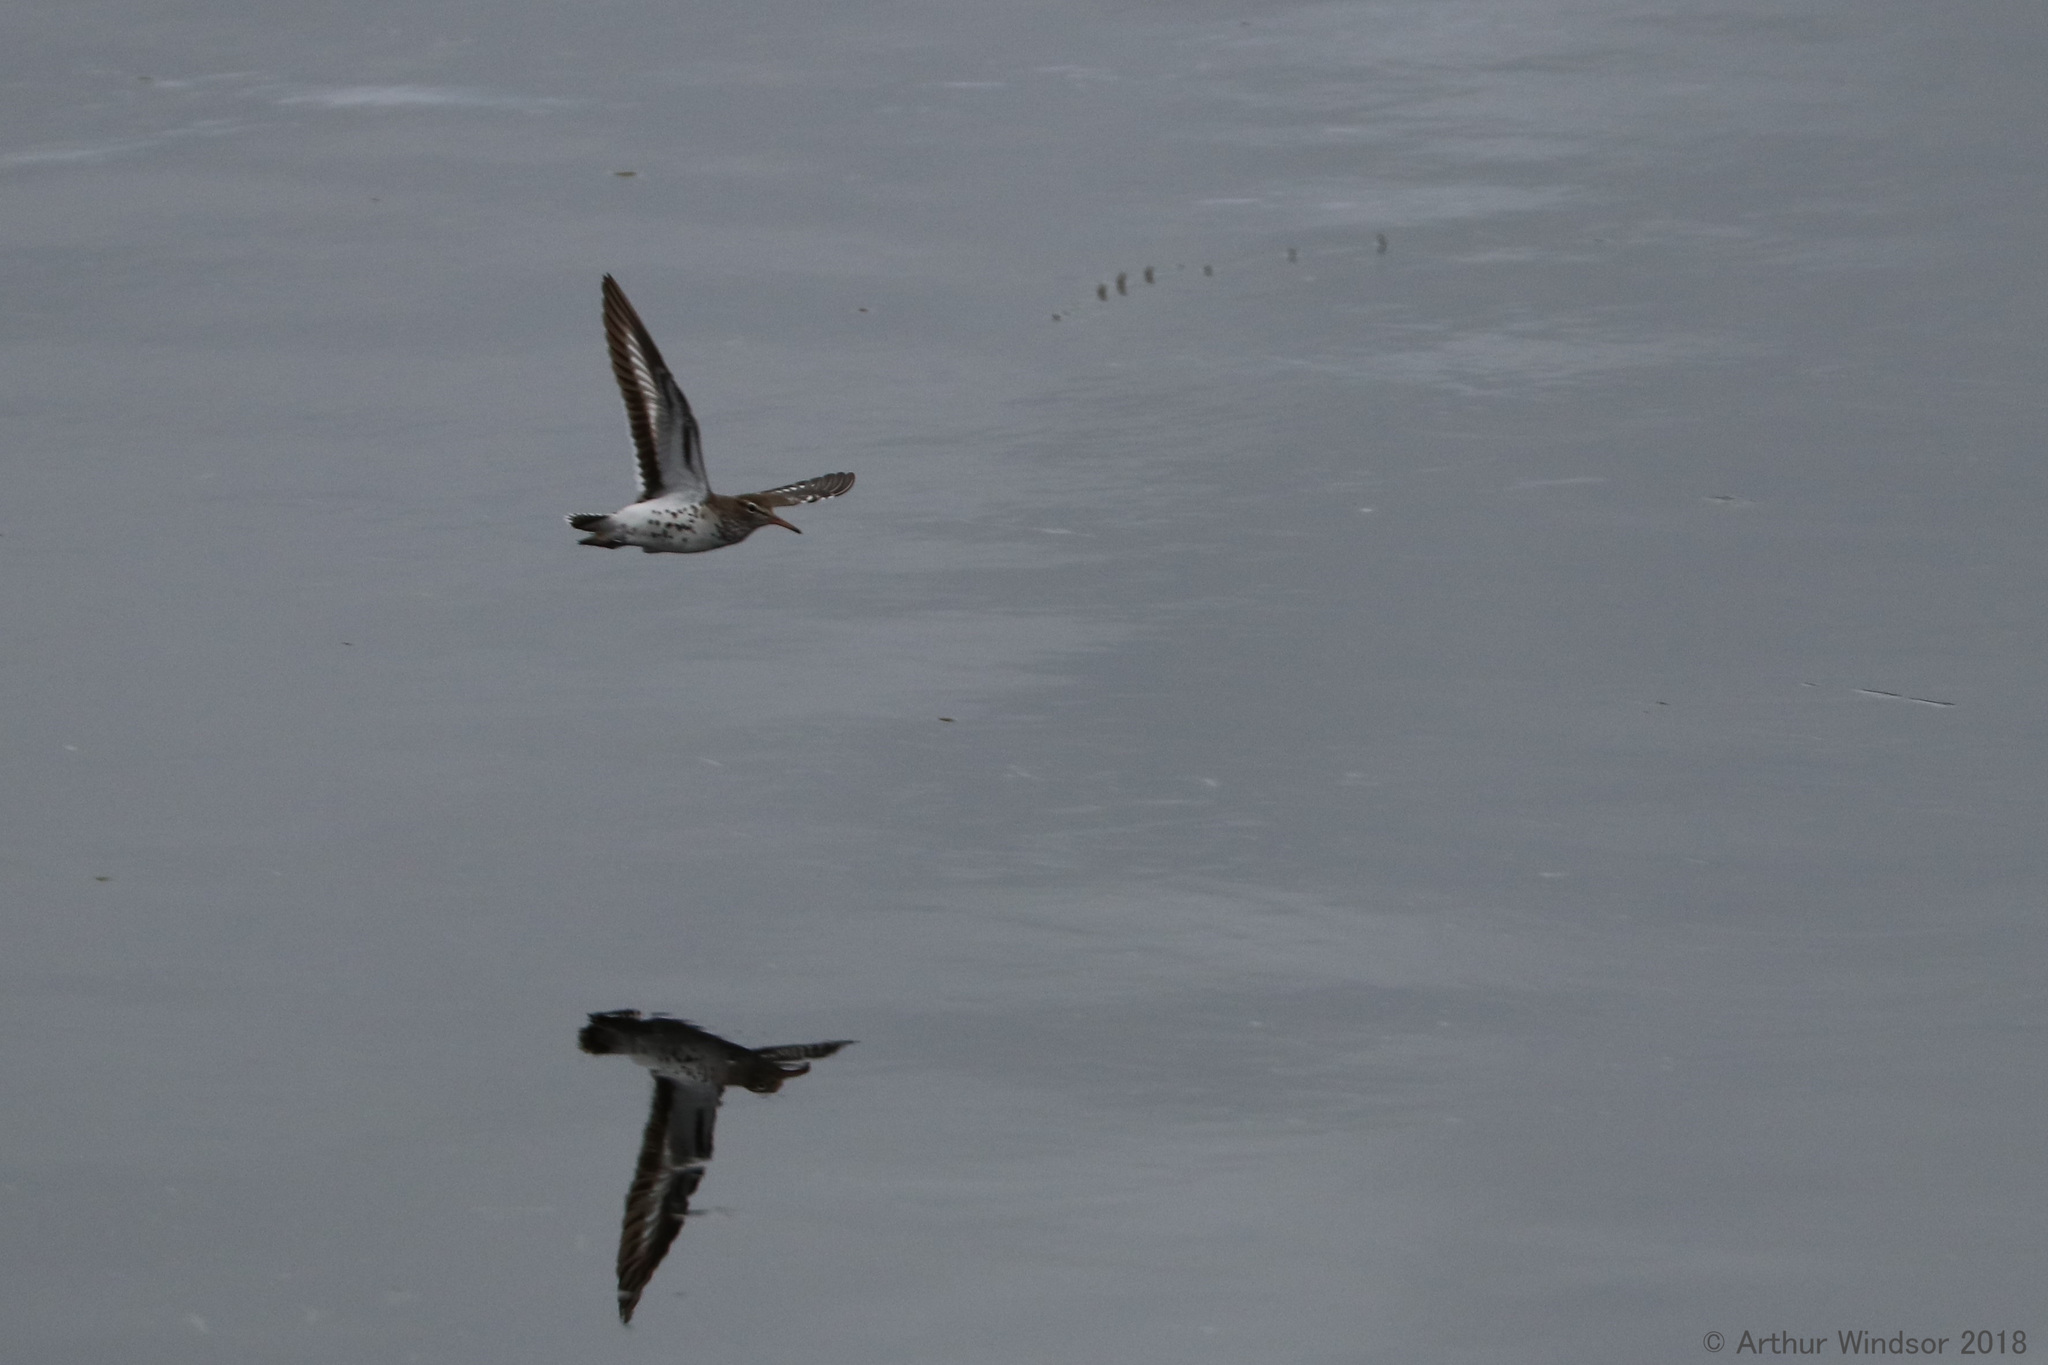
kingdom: Animalia
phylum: Chordata
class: Aves
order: Charadriiformes
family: Scolopacidae
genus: Actitis
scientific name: Actitis macularius
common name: Spotted sandpiper
